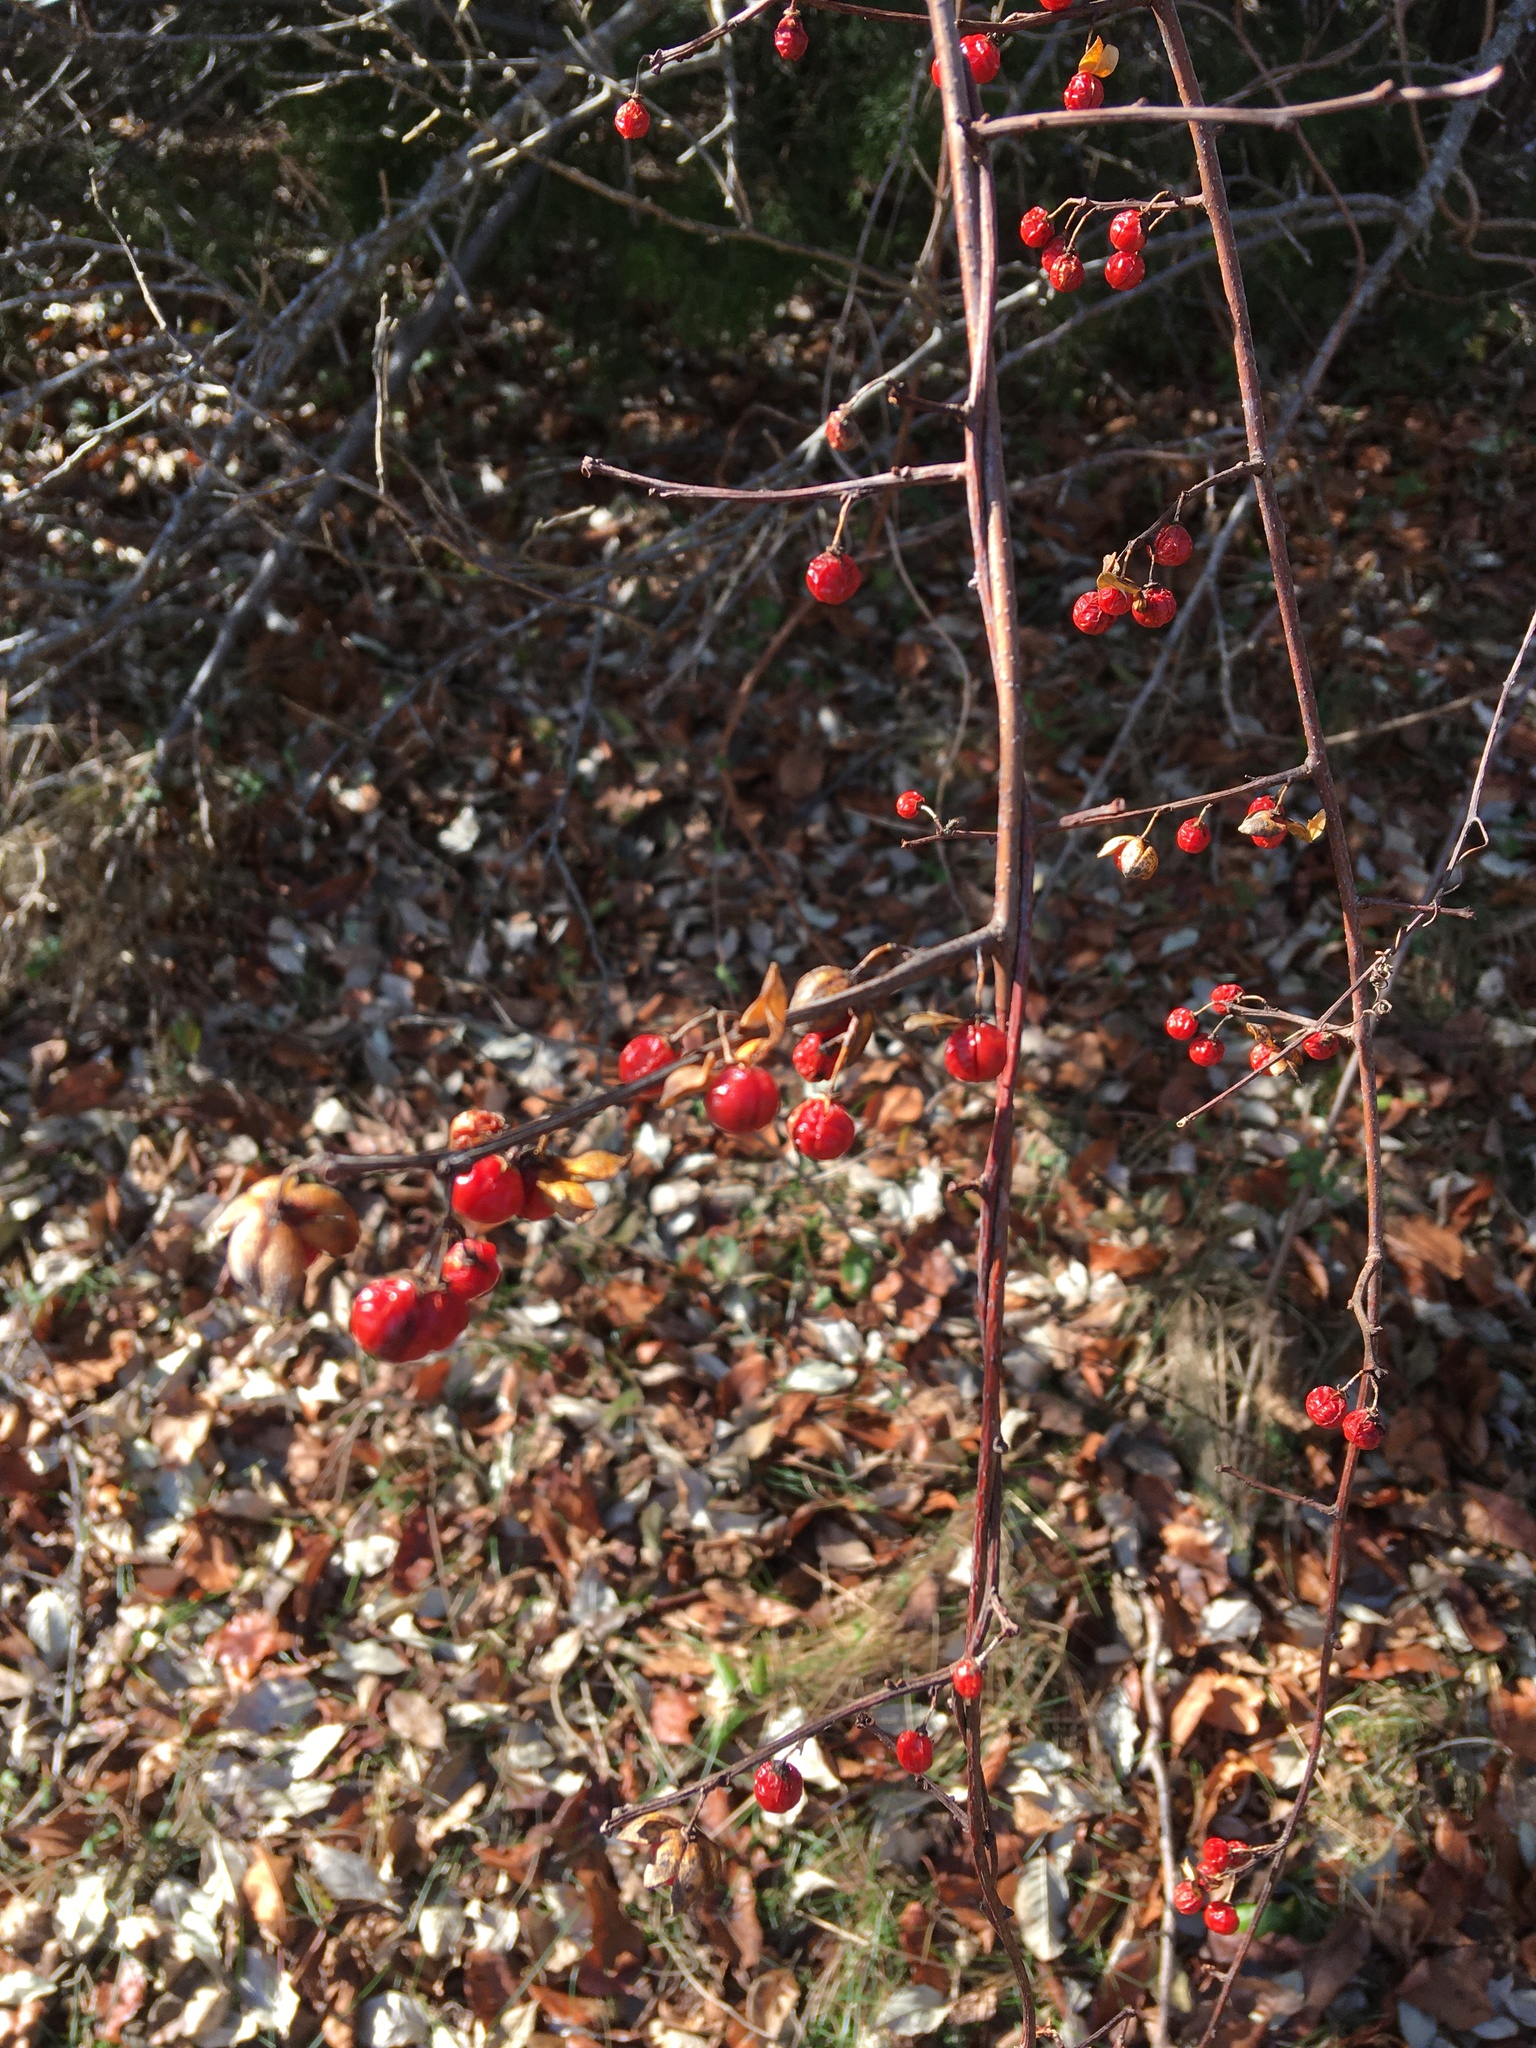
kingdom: Plantae
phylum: Tracheophyta
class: Magnoliopsida
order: Celastrales
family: Celastraceae
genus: Celastrus
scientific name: Celastrus orbiculatus
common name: Oriental bittersweet
